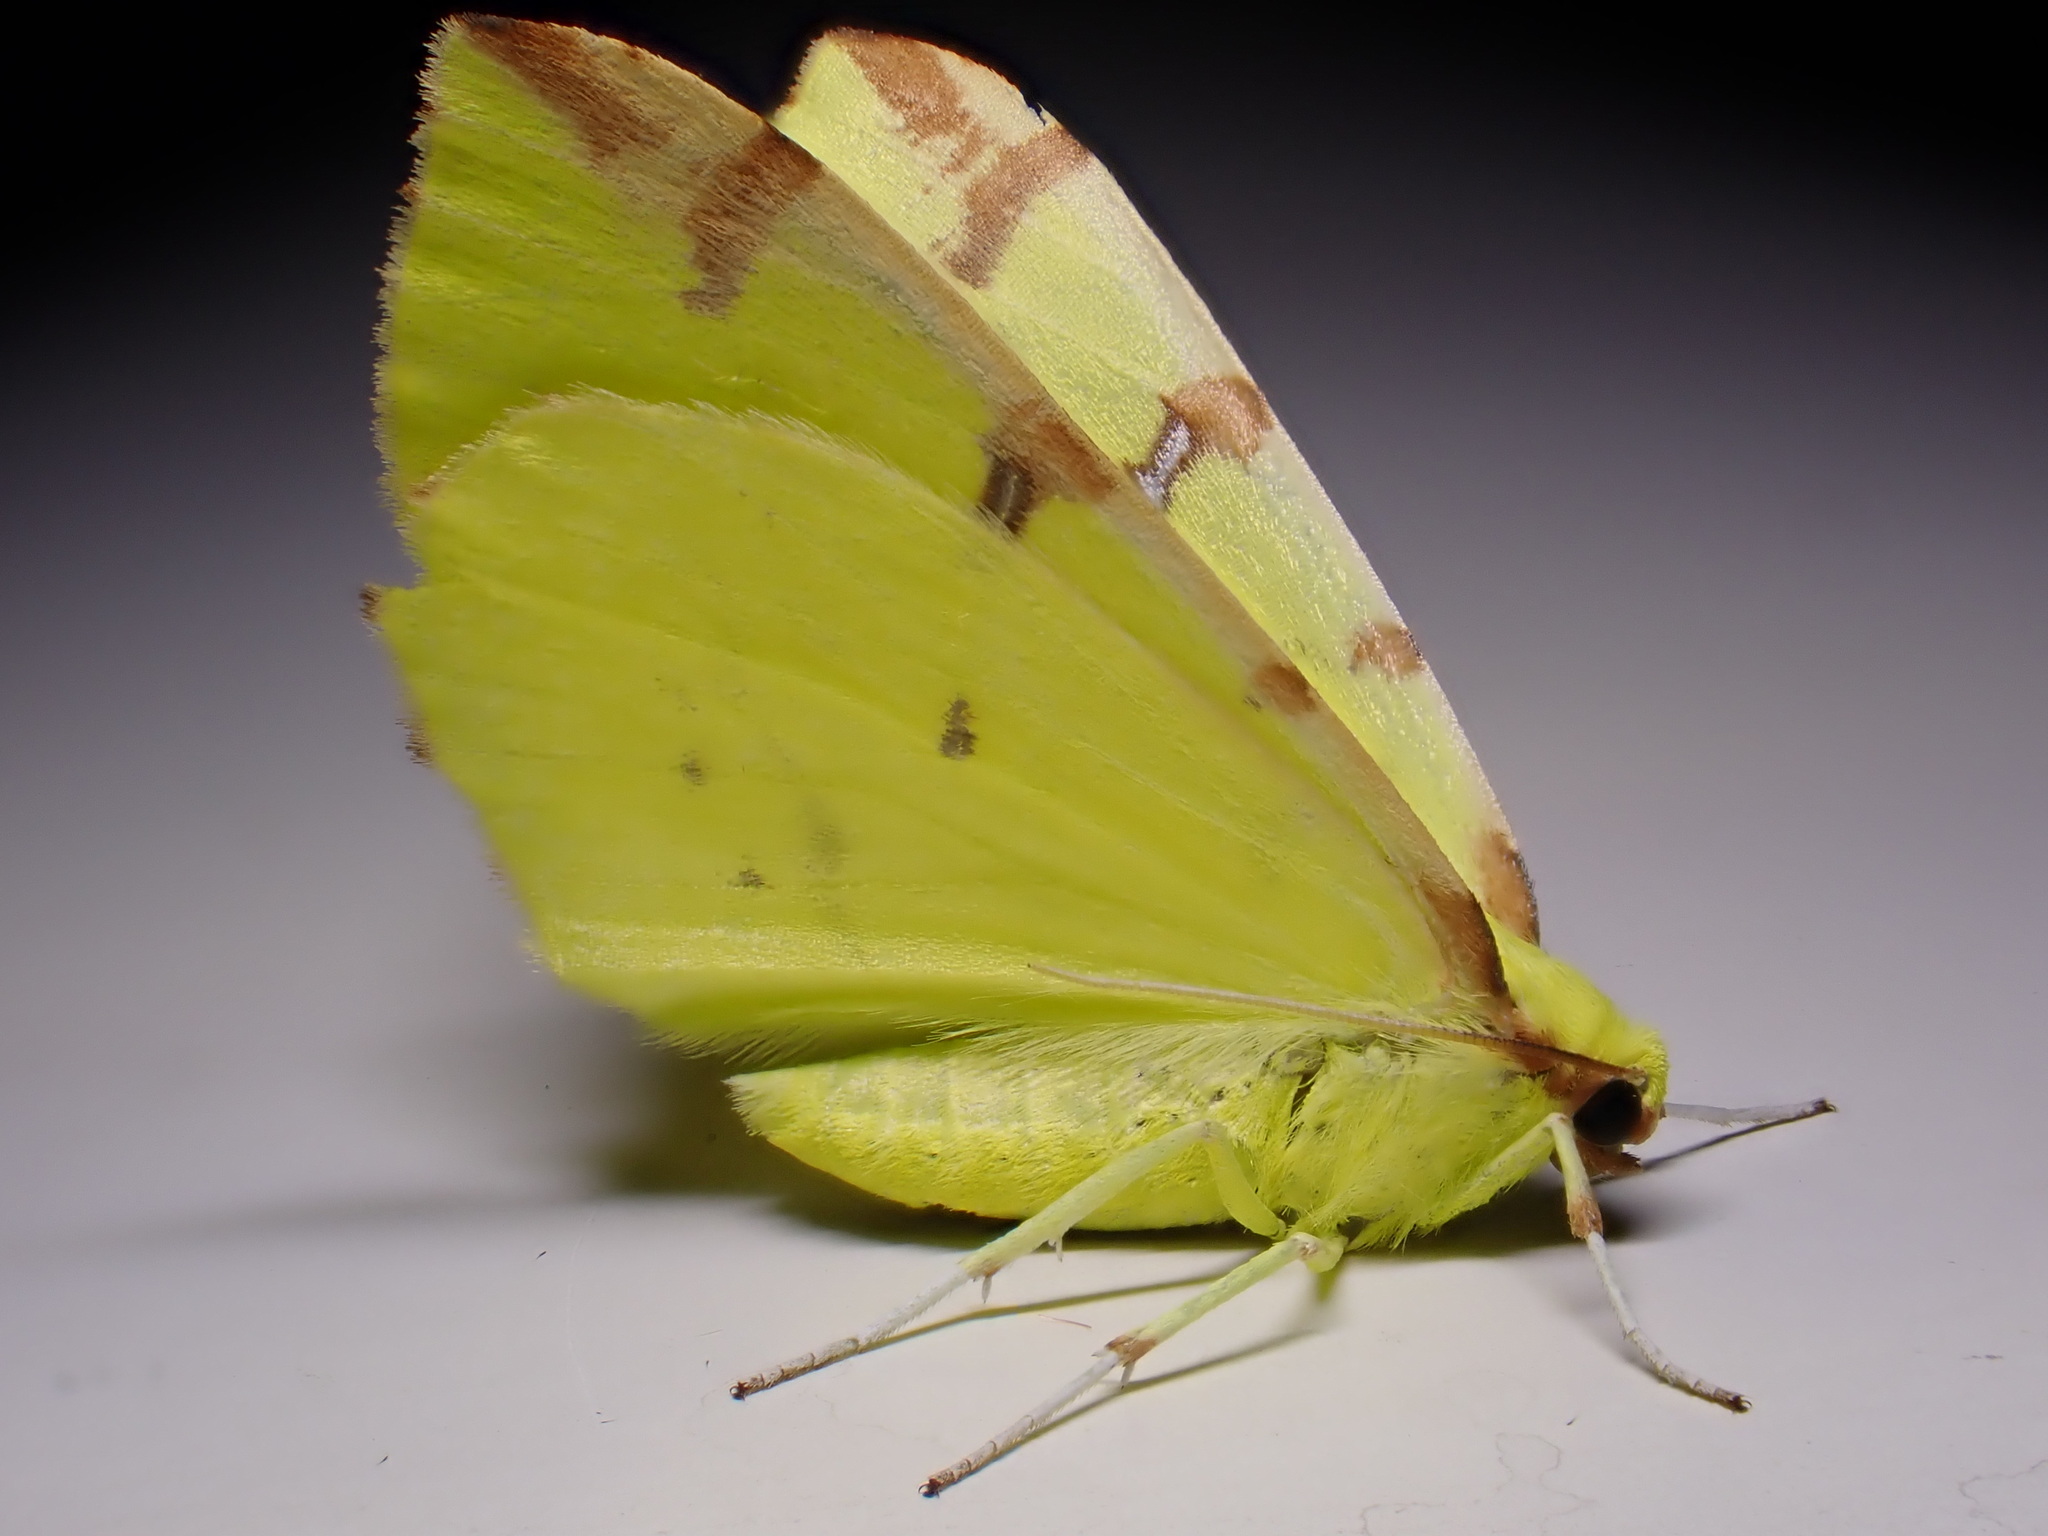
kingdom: Animalia
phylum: Arthropoda
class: Insecta
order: Lepidoptera
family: Geometridae
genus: Opisthograptis
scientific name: Opisthograptis luteolata
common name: Brimstone moth
